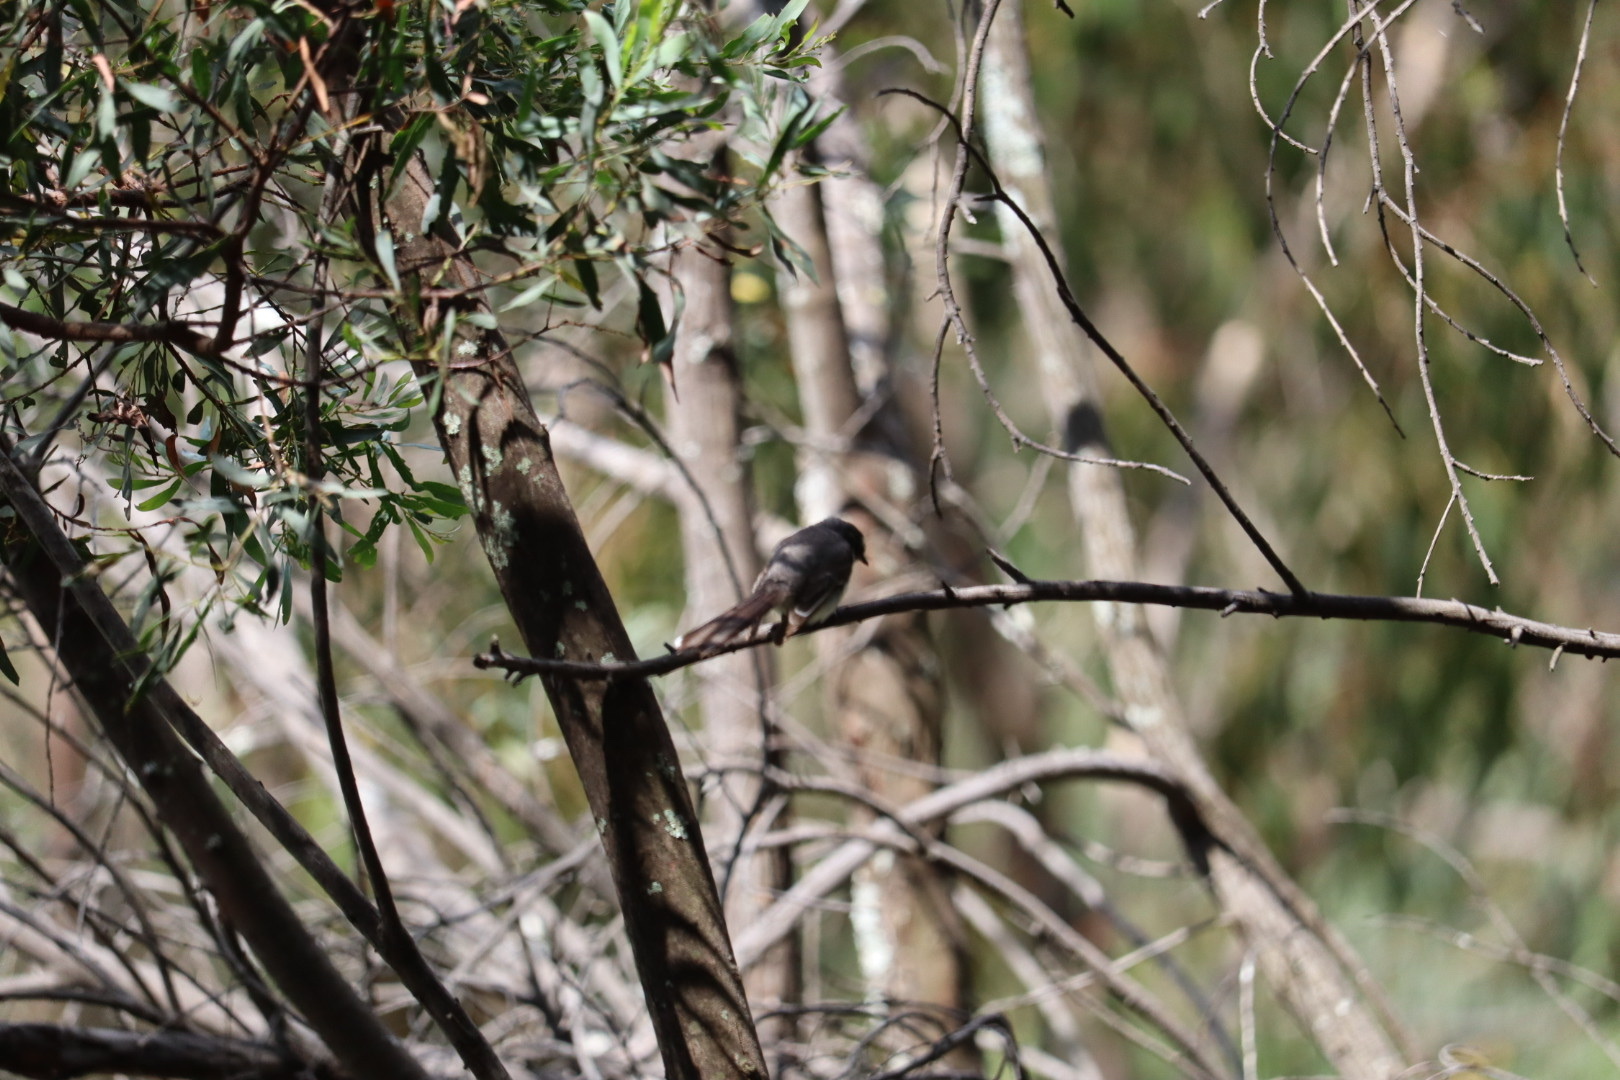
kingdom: Animalia
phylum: Chordata
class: Aves
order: Passeriformes
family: Rhipiduridae
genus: Rhipidura
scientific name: Rhipidura albiscapa
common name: Grey fantail
